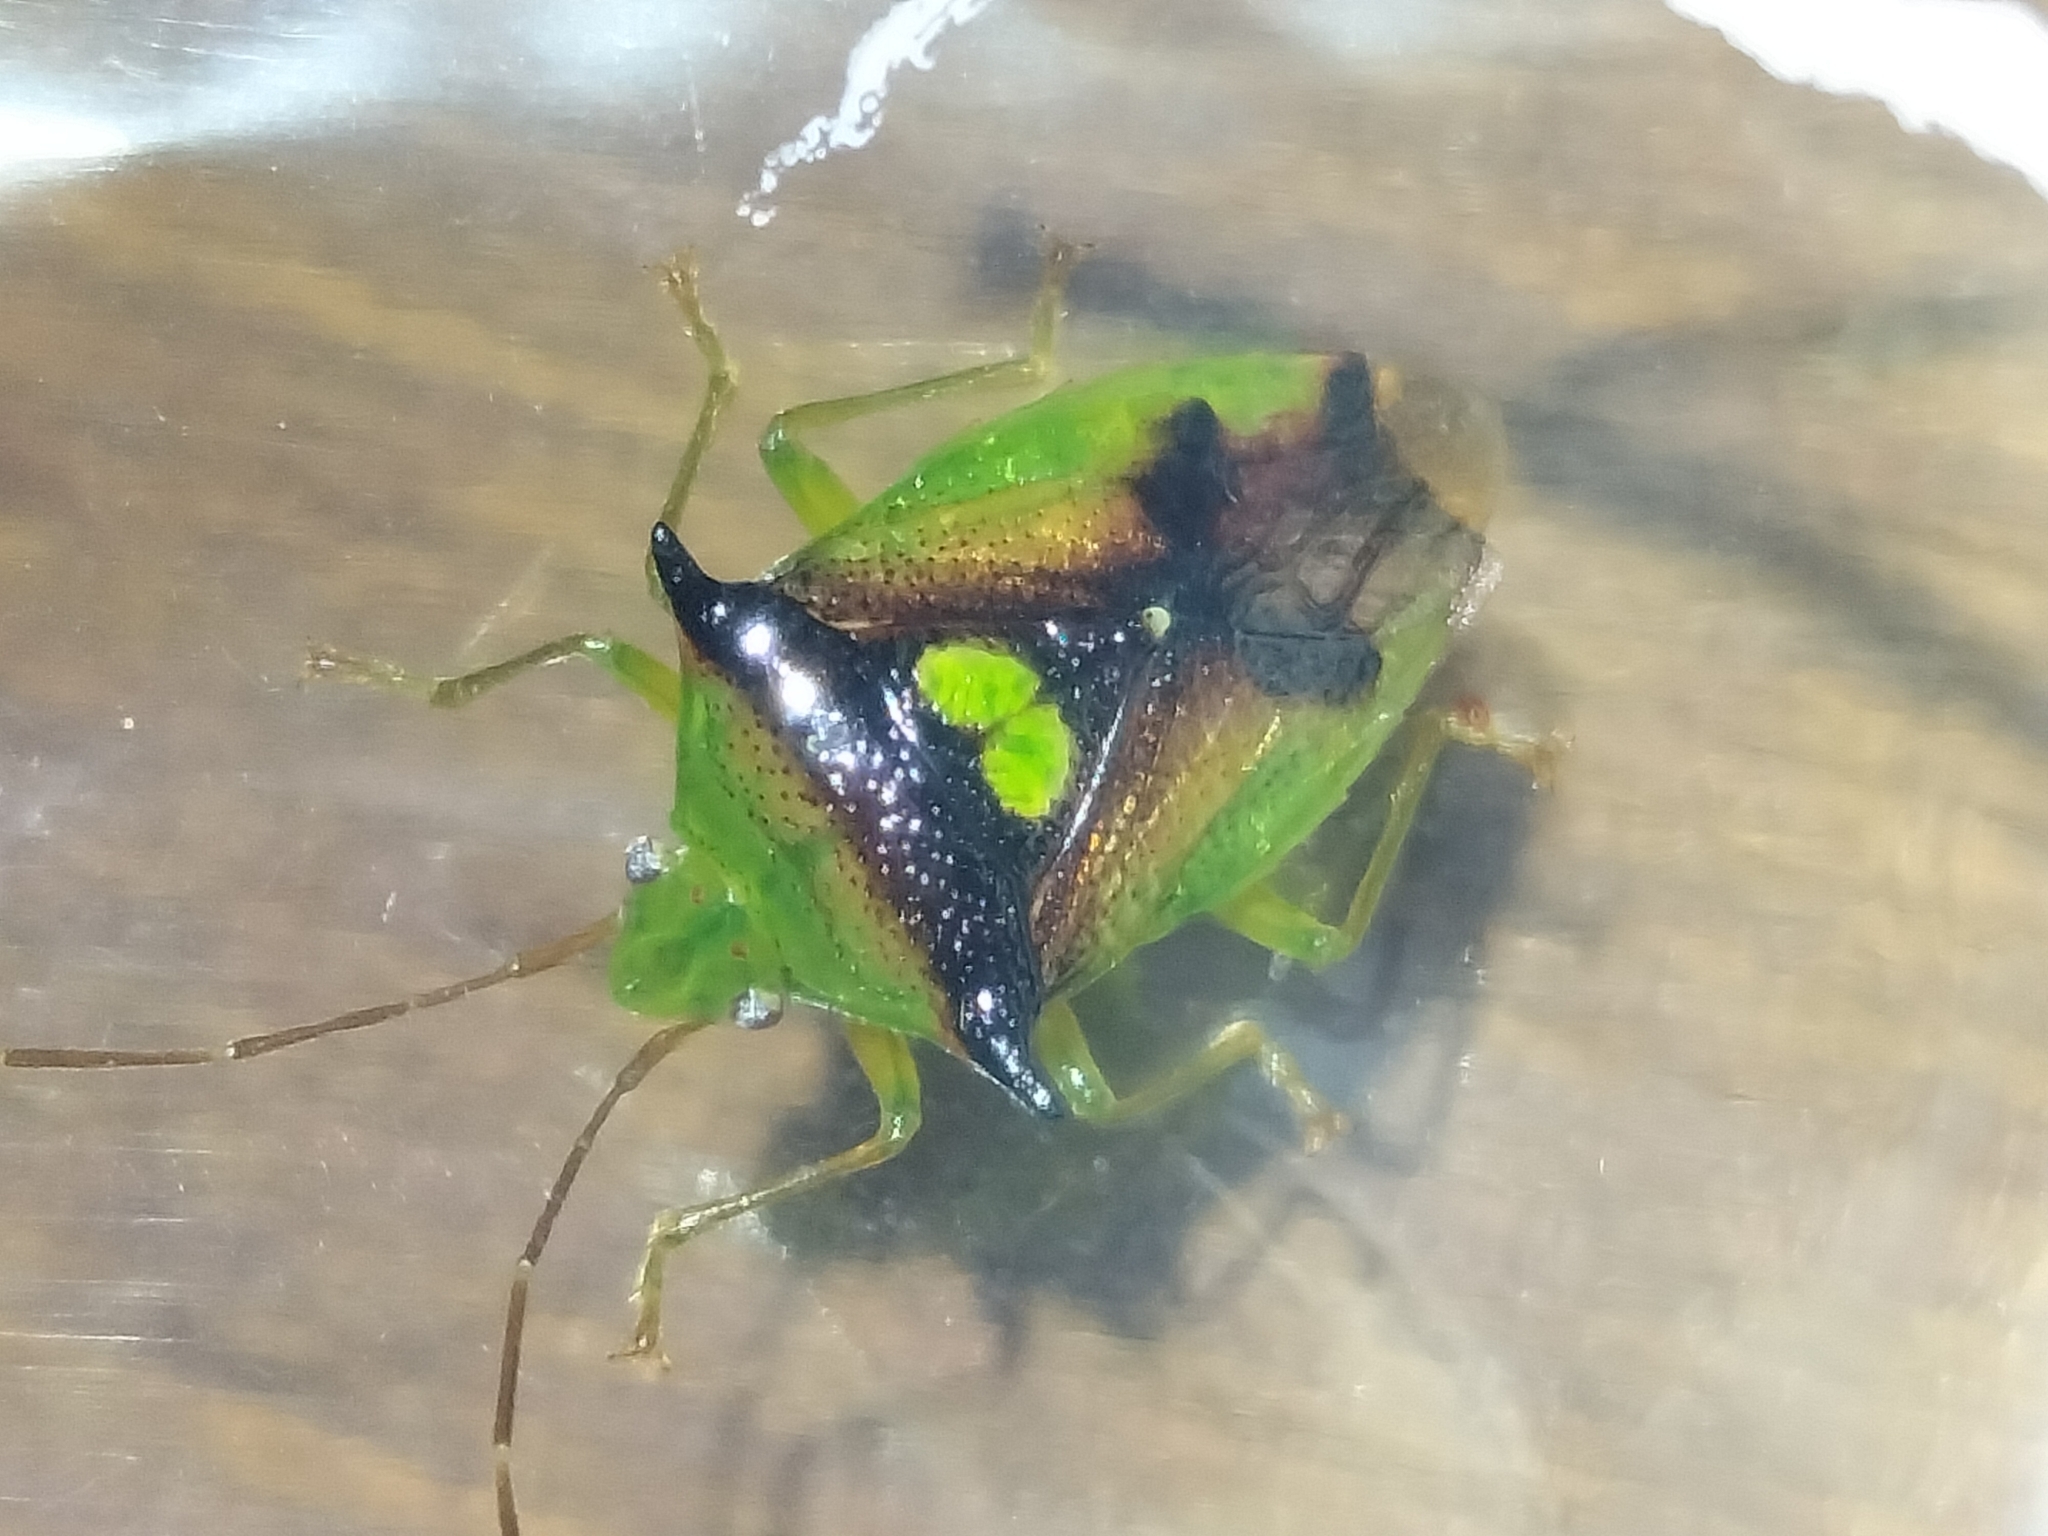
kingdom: Animalia
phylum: Arthropoda
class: Insecta
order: Hemiptera
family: Acanthosomatidae
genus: Sastragala
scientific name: Sastragala versicolor
